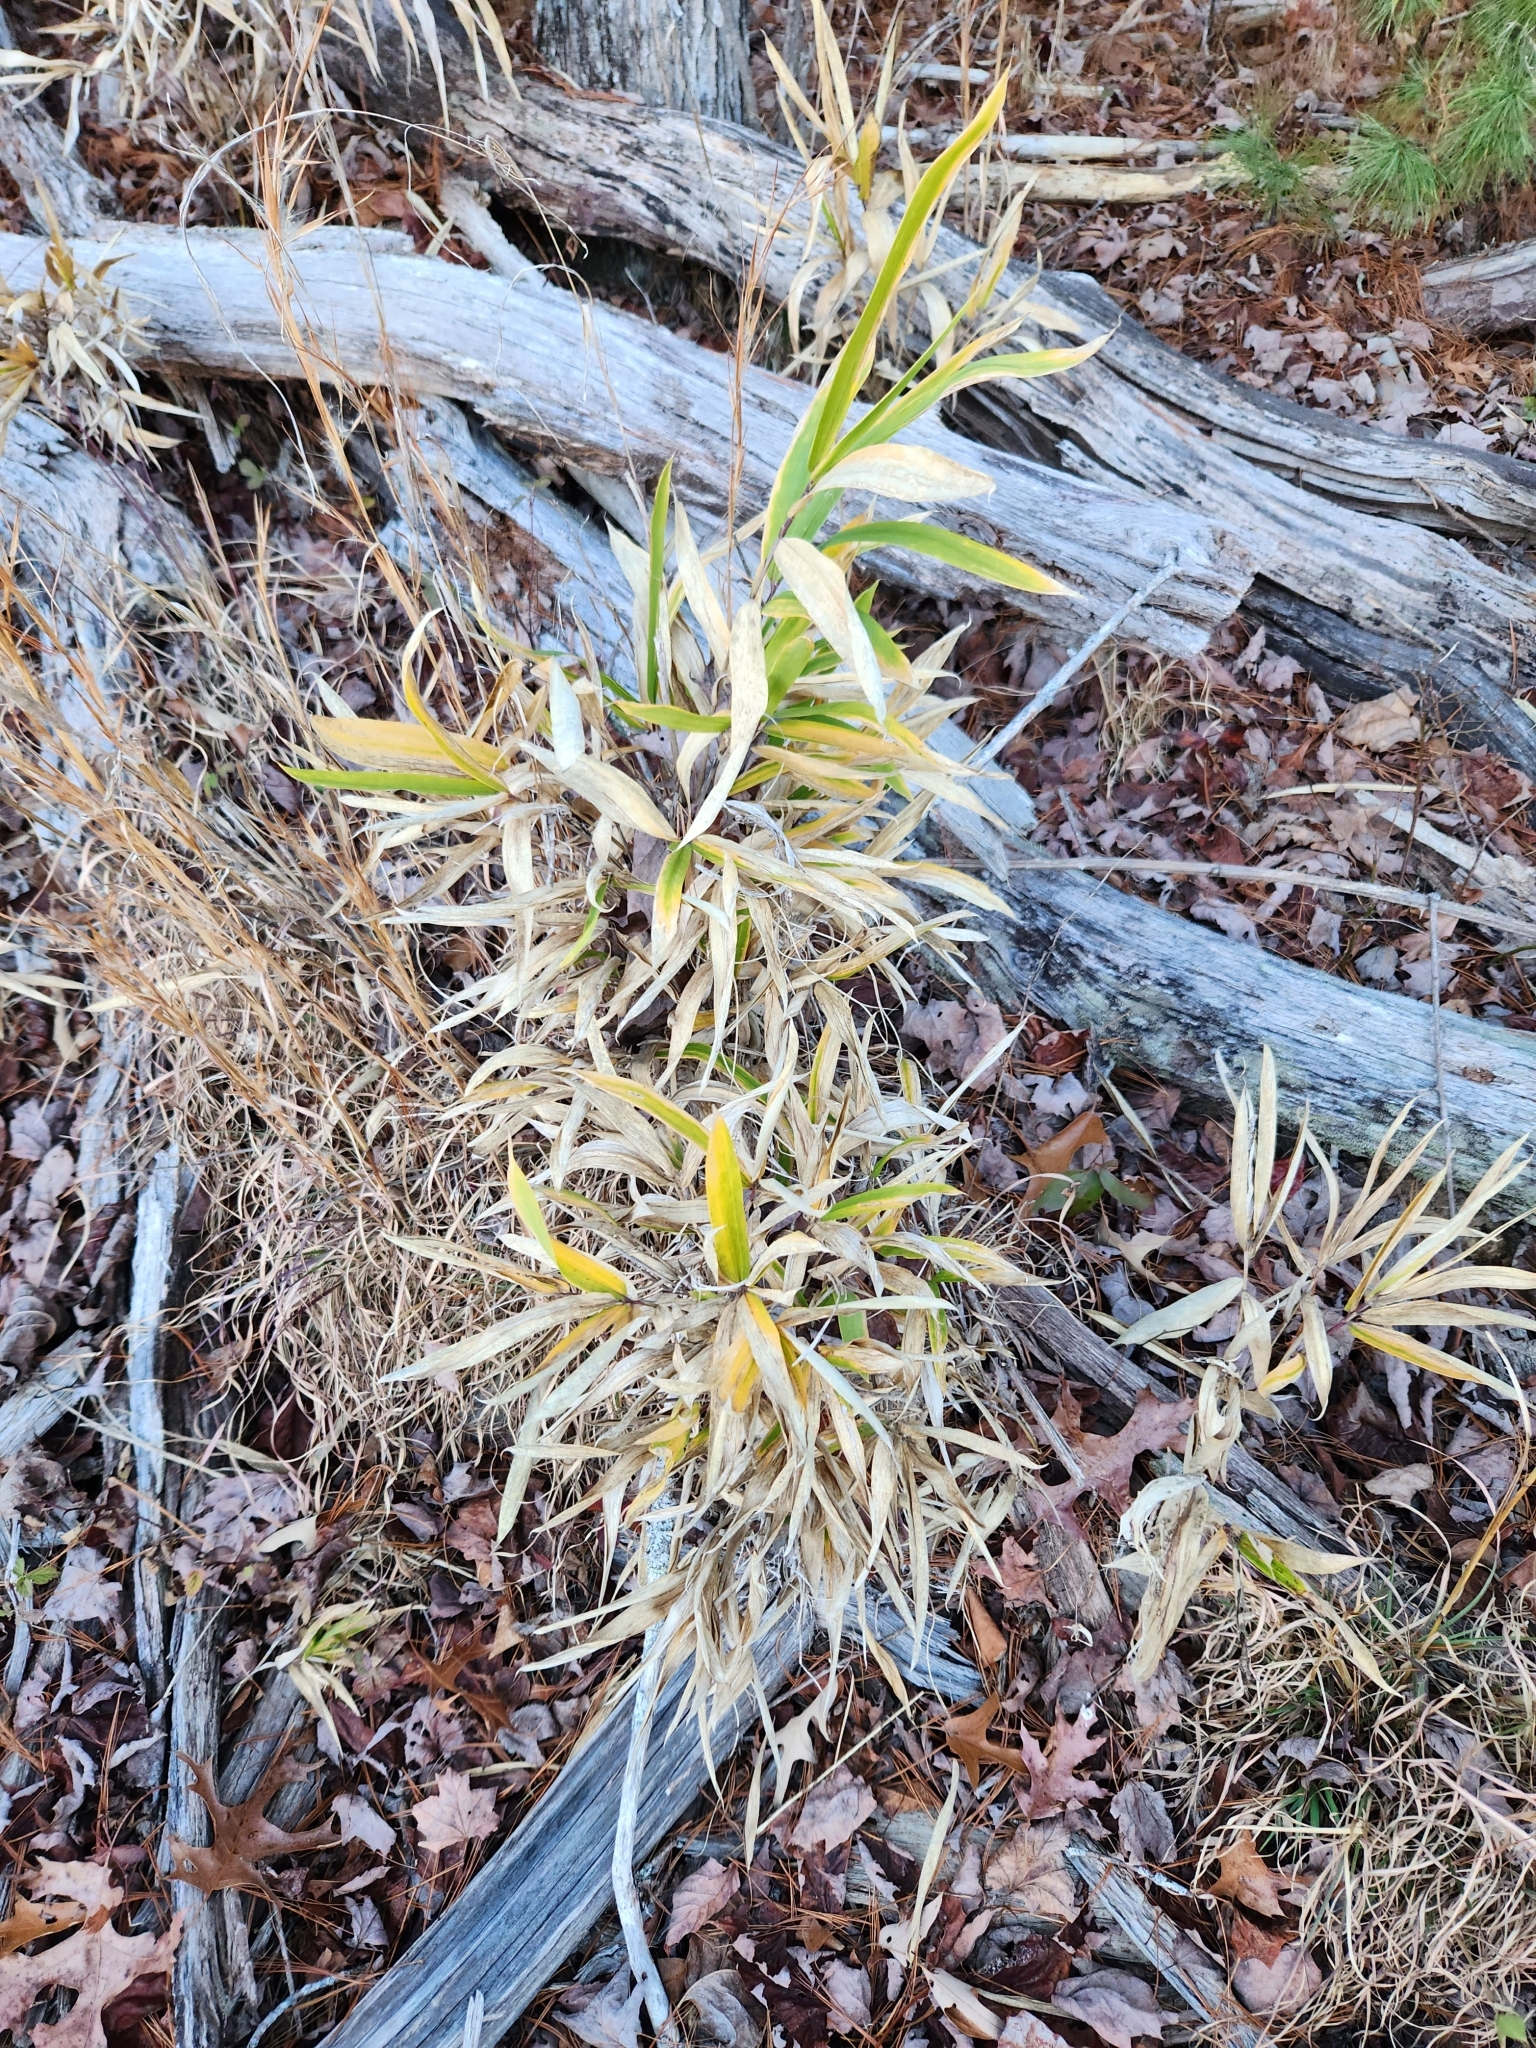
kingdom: Plantae
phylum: Tracheophyta
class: Liliopsida
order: Poales
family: Poaceae
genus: Arundinaria
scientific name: Arundinaria appalachiana
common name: Hill cane
